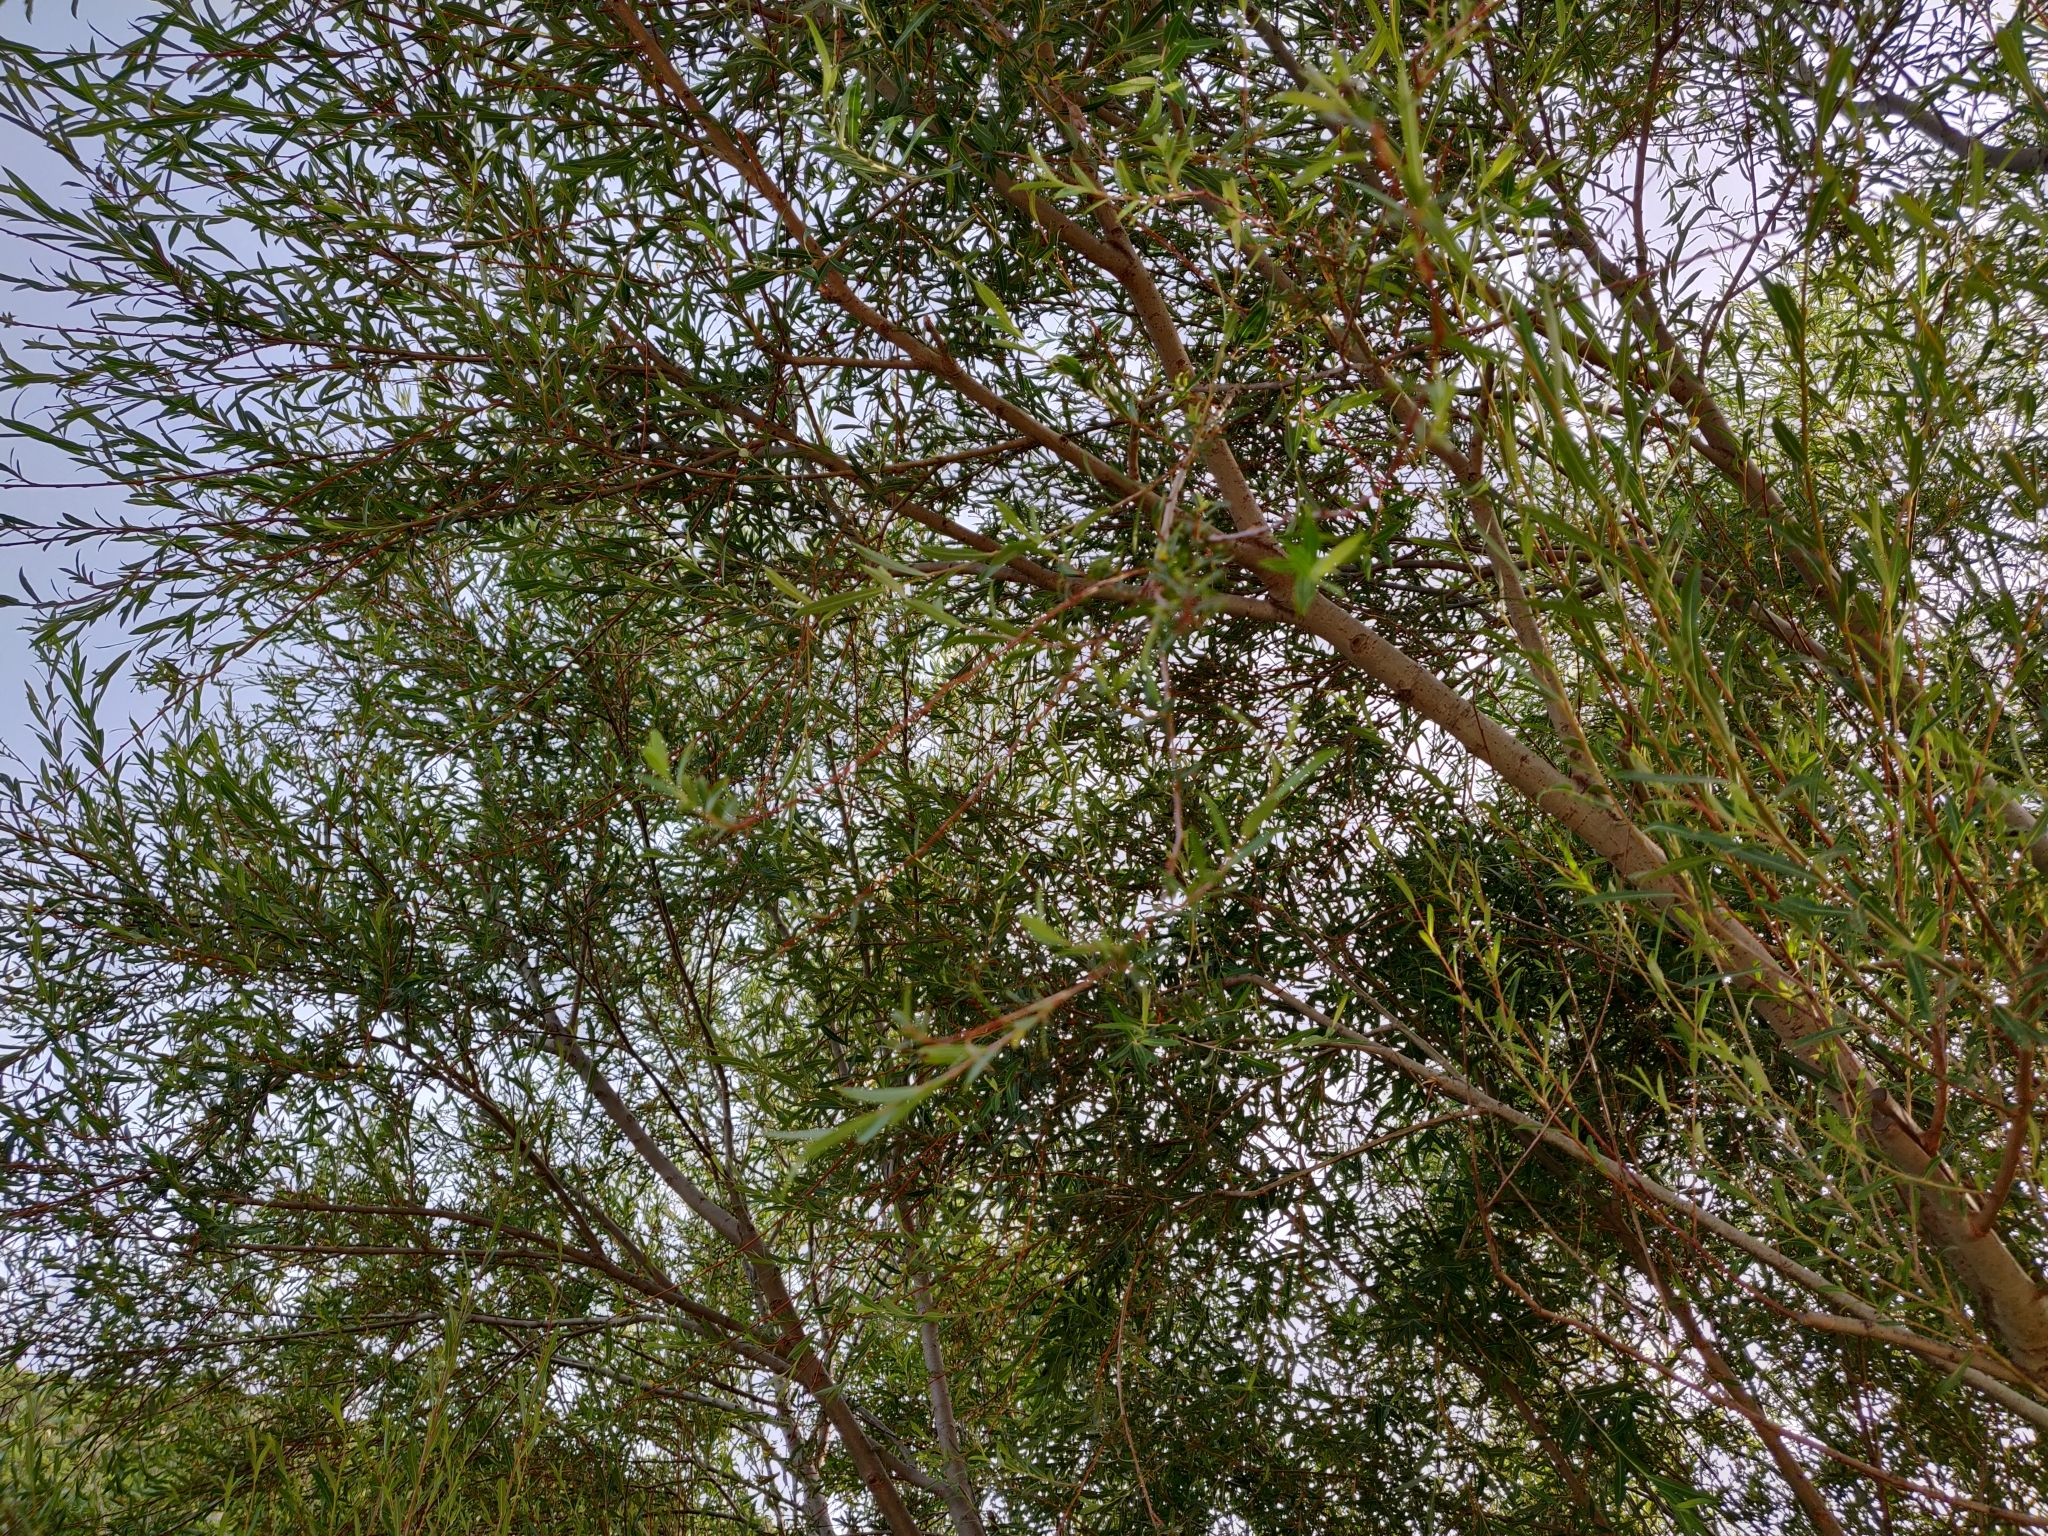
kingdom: Plantae
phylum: Tracheophyta
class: Magnoliopsida
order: Malpighiales
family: Salicaceae
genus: Salix
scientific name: Salix purpurea
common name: Purple willow
